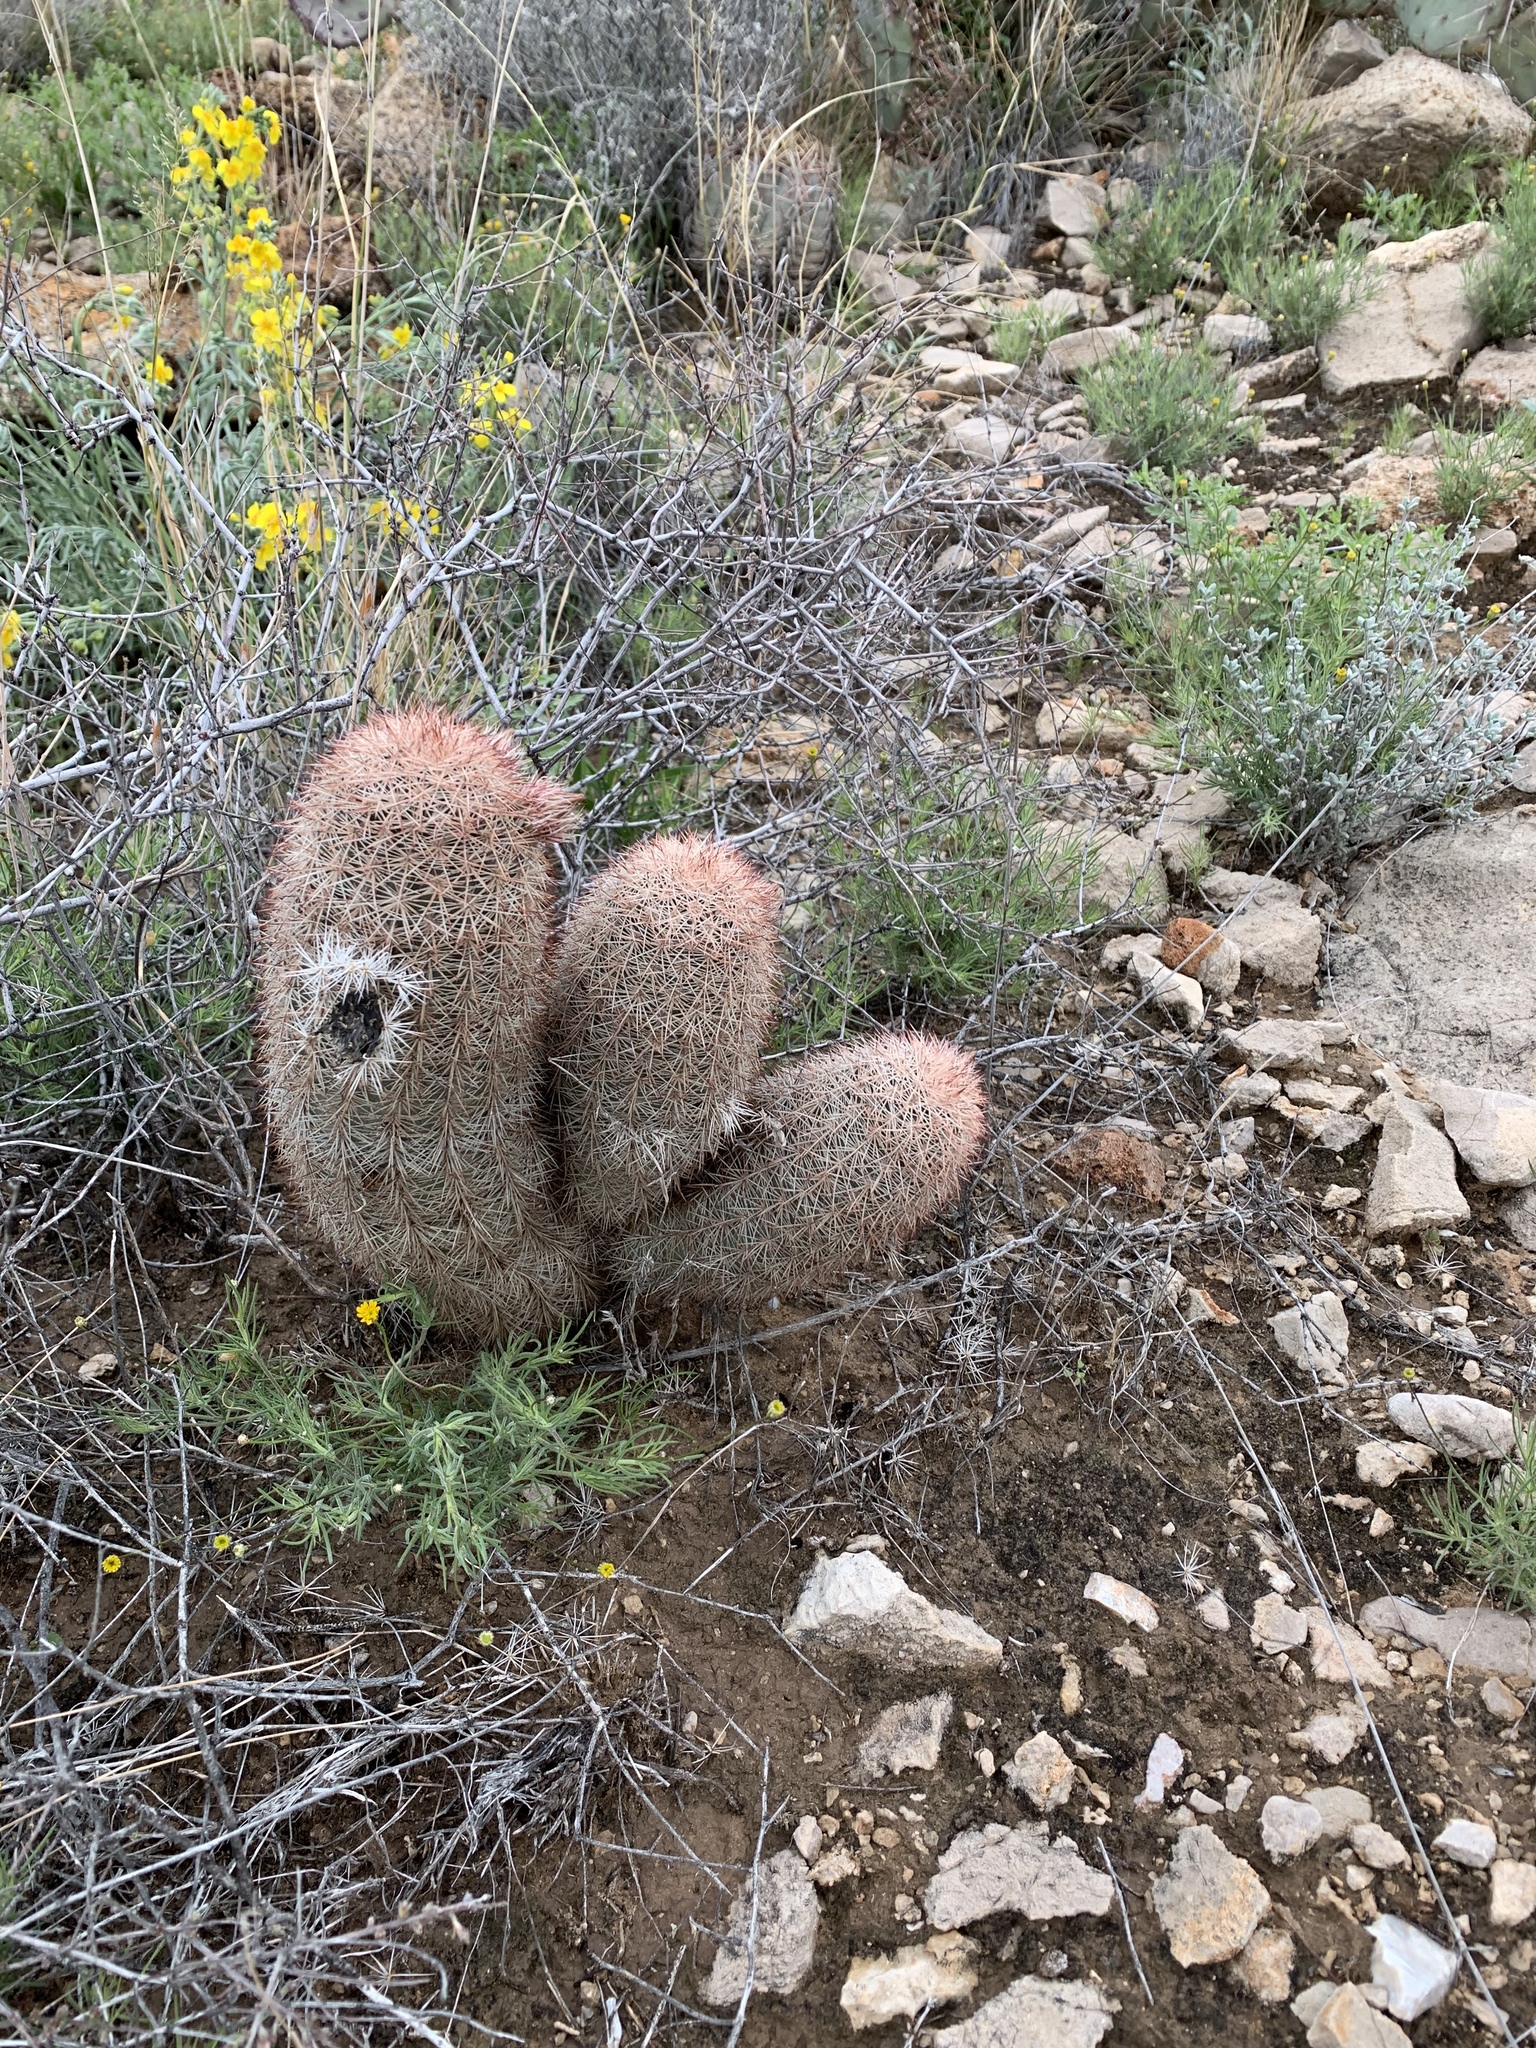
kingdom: Plantae
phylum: Tracheophyta
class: Magnoliopsida
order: Caryophyllales
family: Cactaceae
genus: Echinocereus
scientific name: Echinocereus dasyacanthus
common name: Spiny hedgehog cactus
